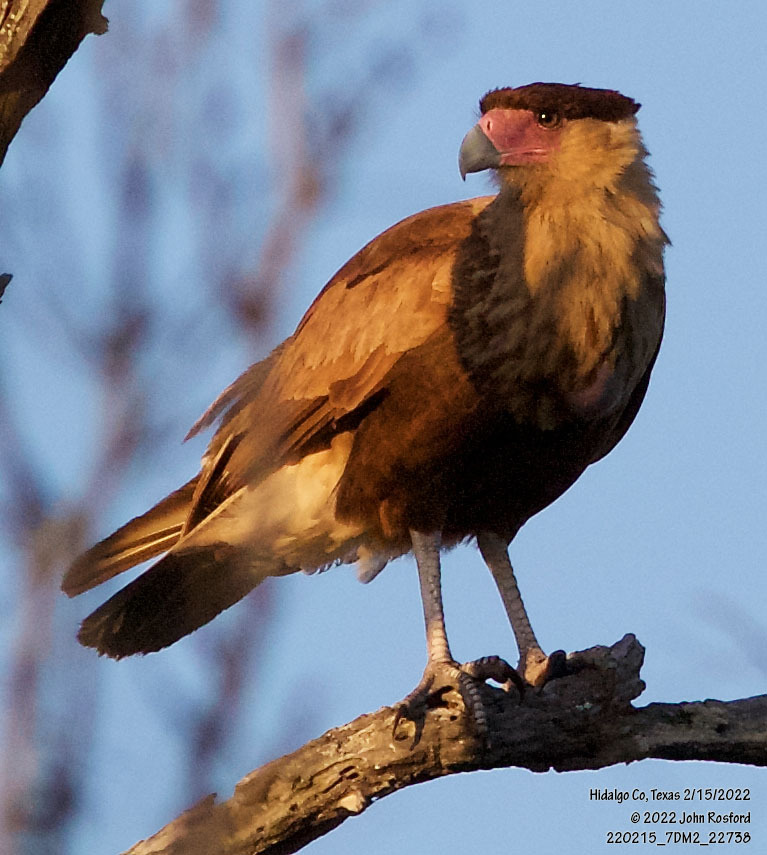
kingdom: Animalia
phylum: Chordata
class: Aves
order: Falconiformes
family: Falconidae
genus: Caracara
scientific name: Caracara plancus
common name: Southern caracara
